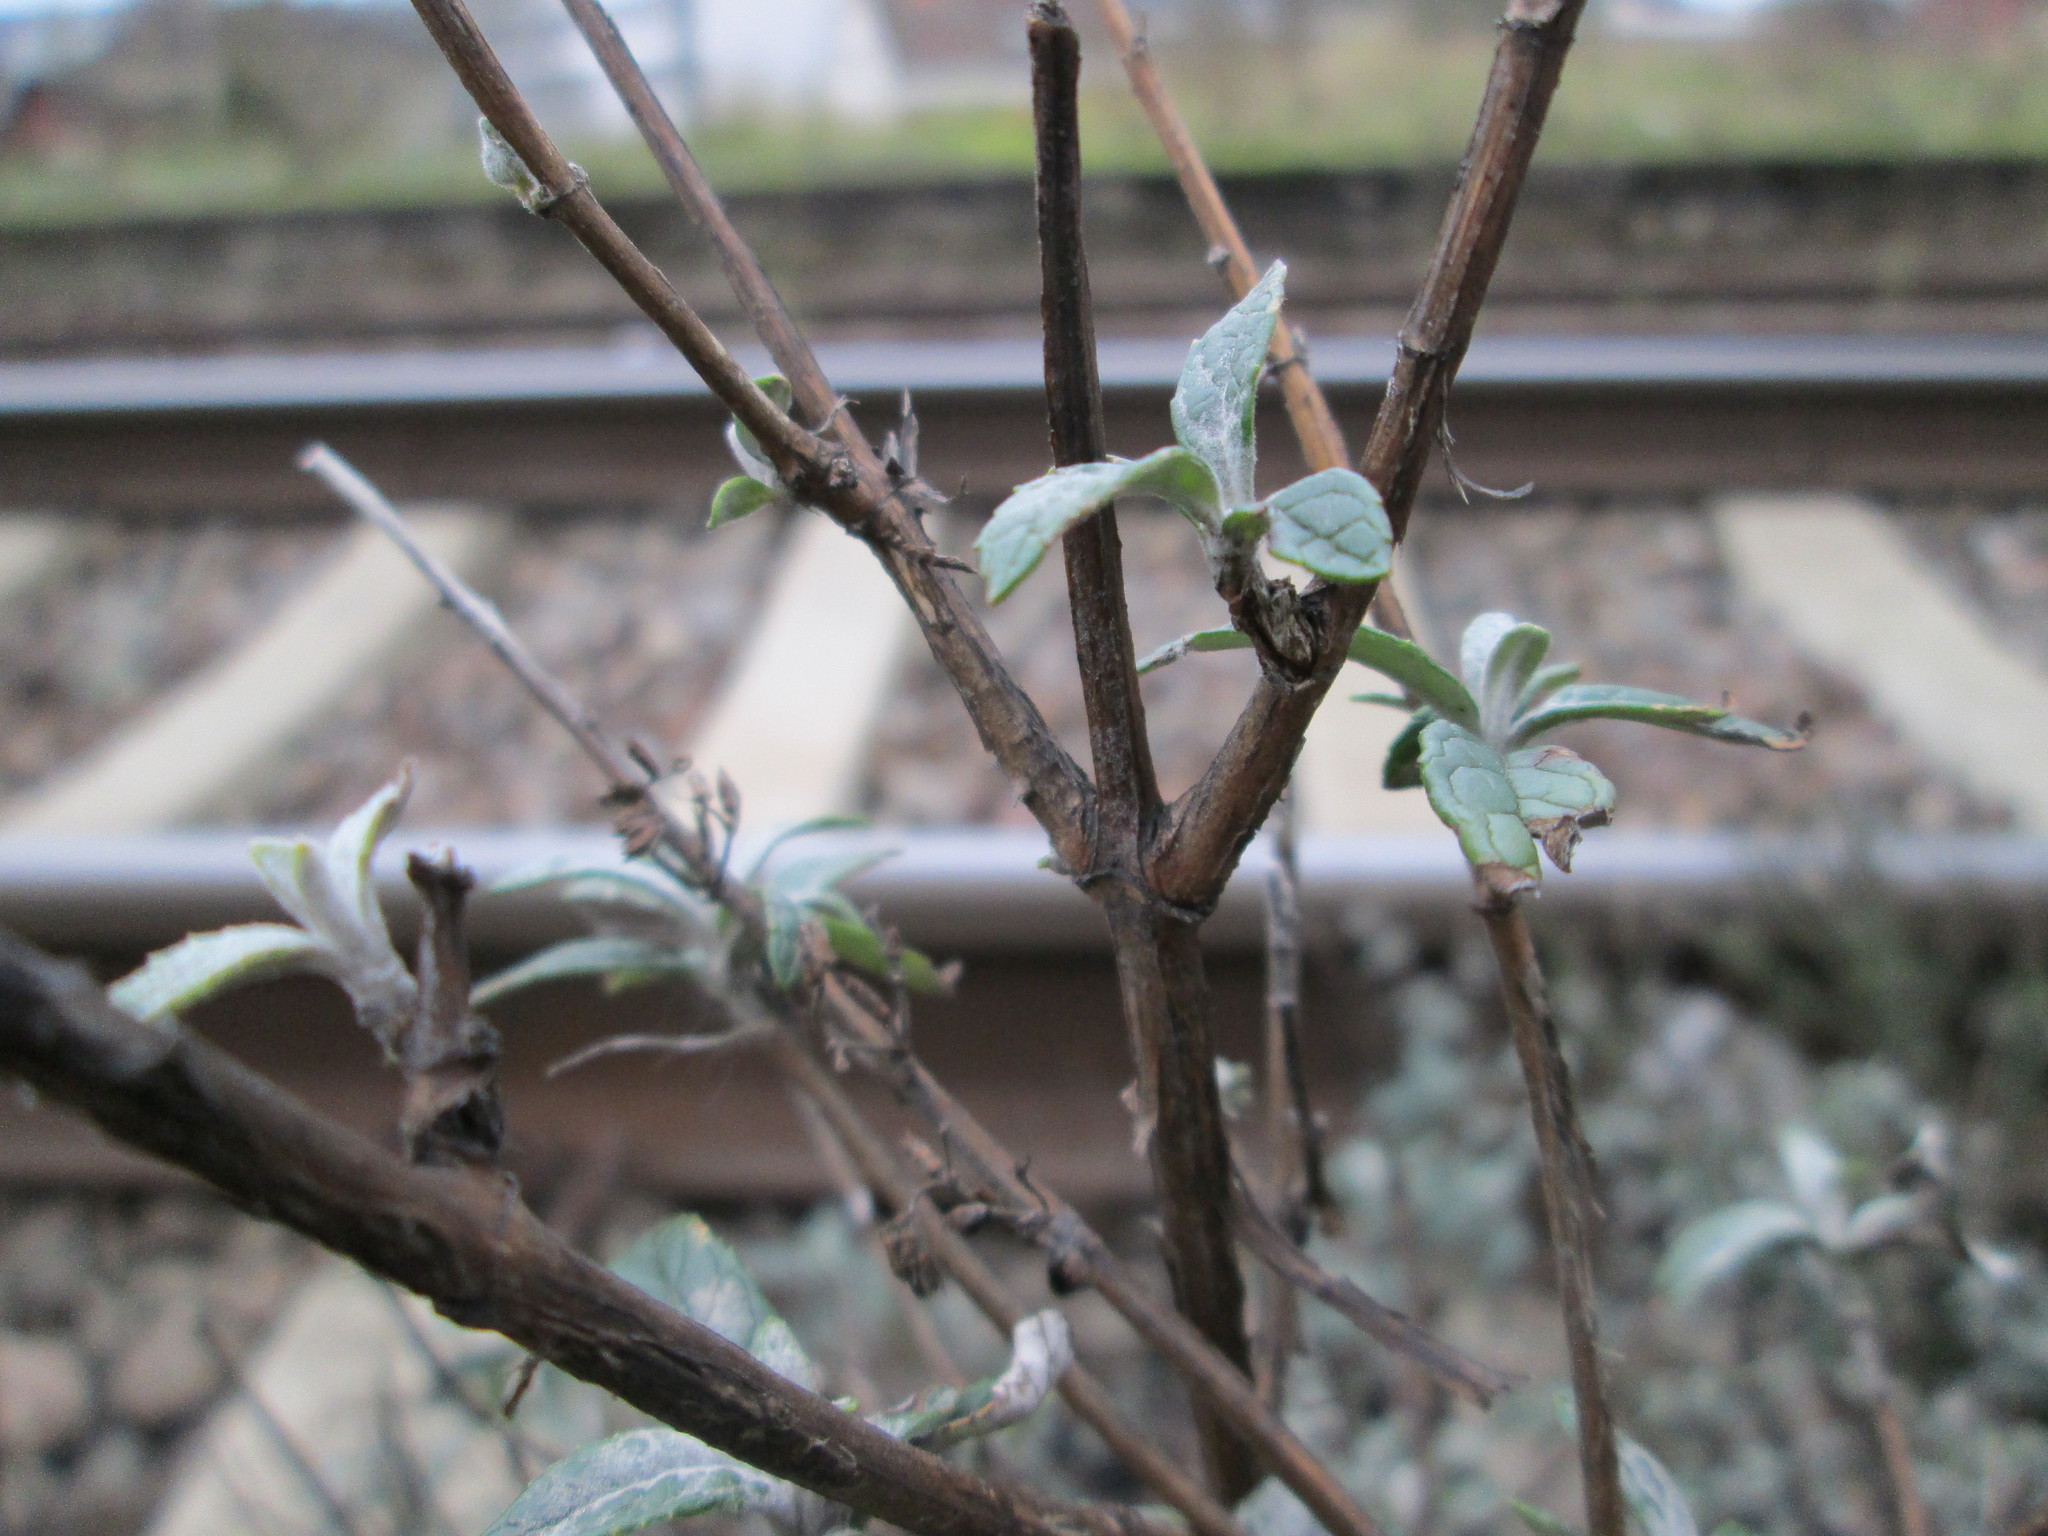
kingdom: Plantae
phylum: Tracheophyta
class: Magnoliopsida
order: Lamiales
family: Scrophulariaceae
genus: Buddleja
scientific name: Buddleja davidii
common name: Butterfly-bush
